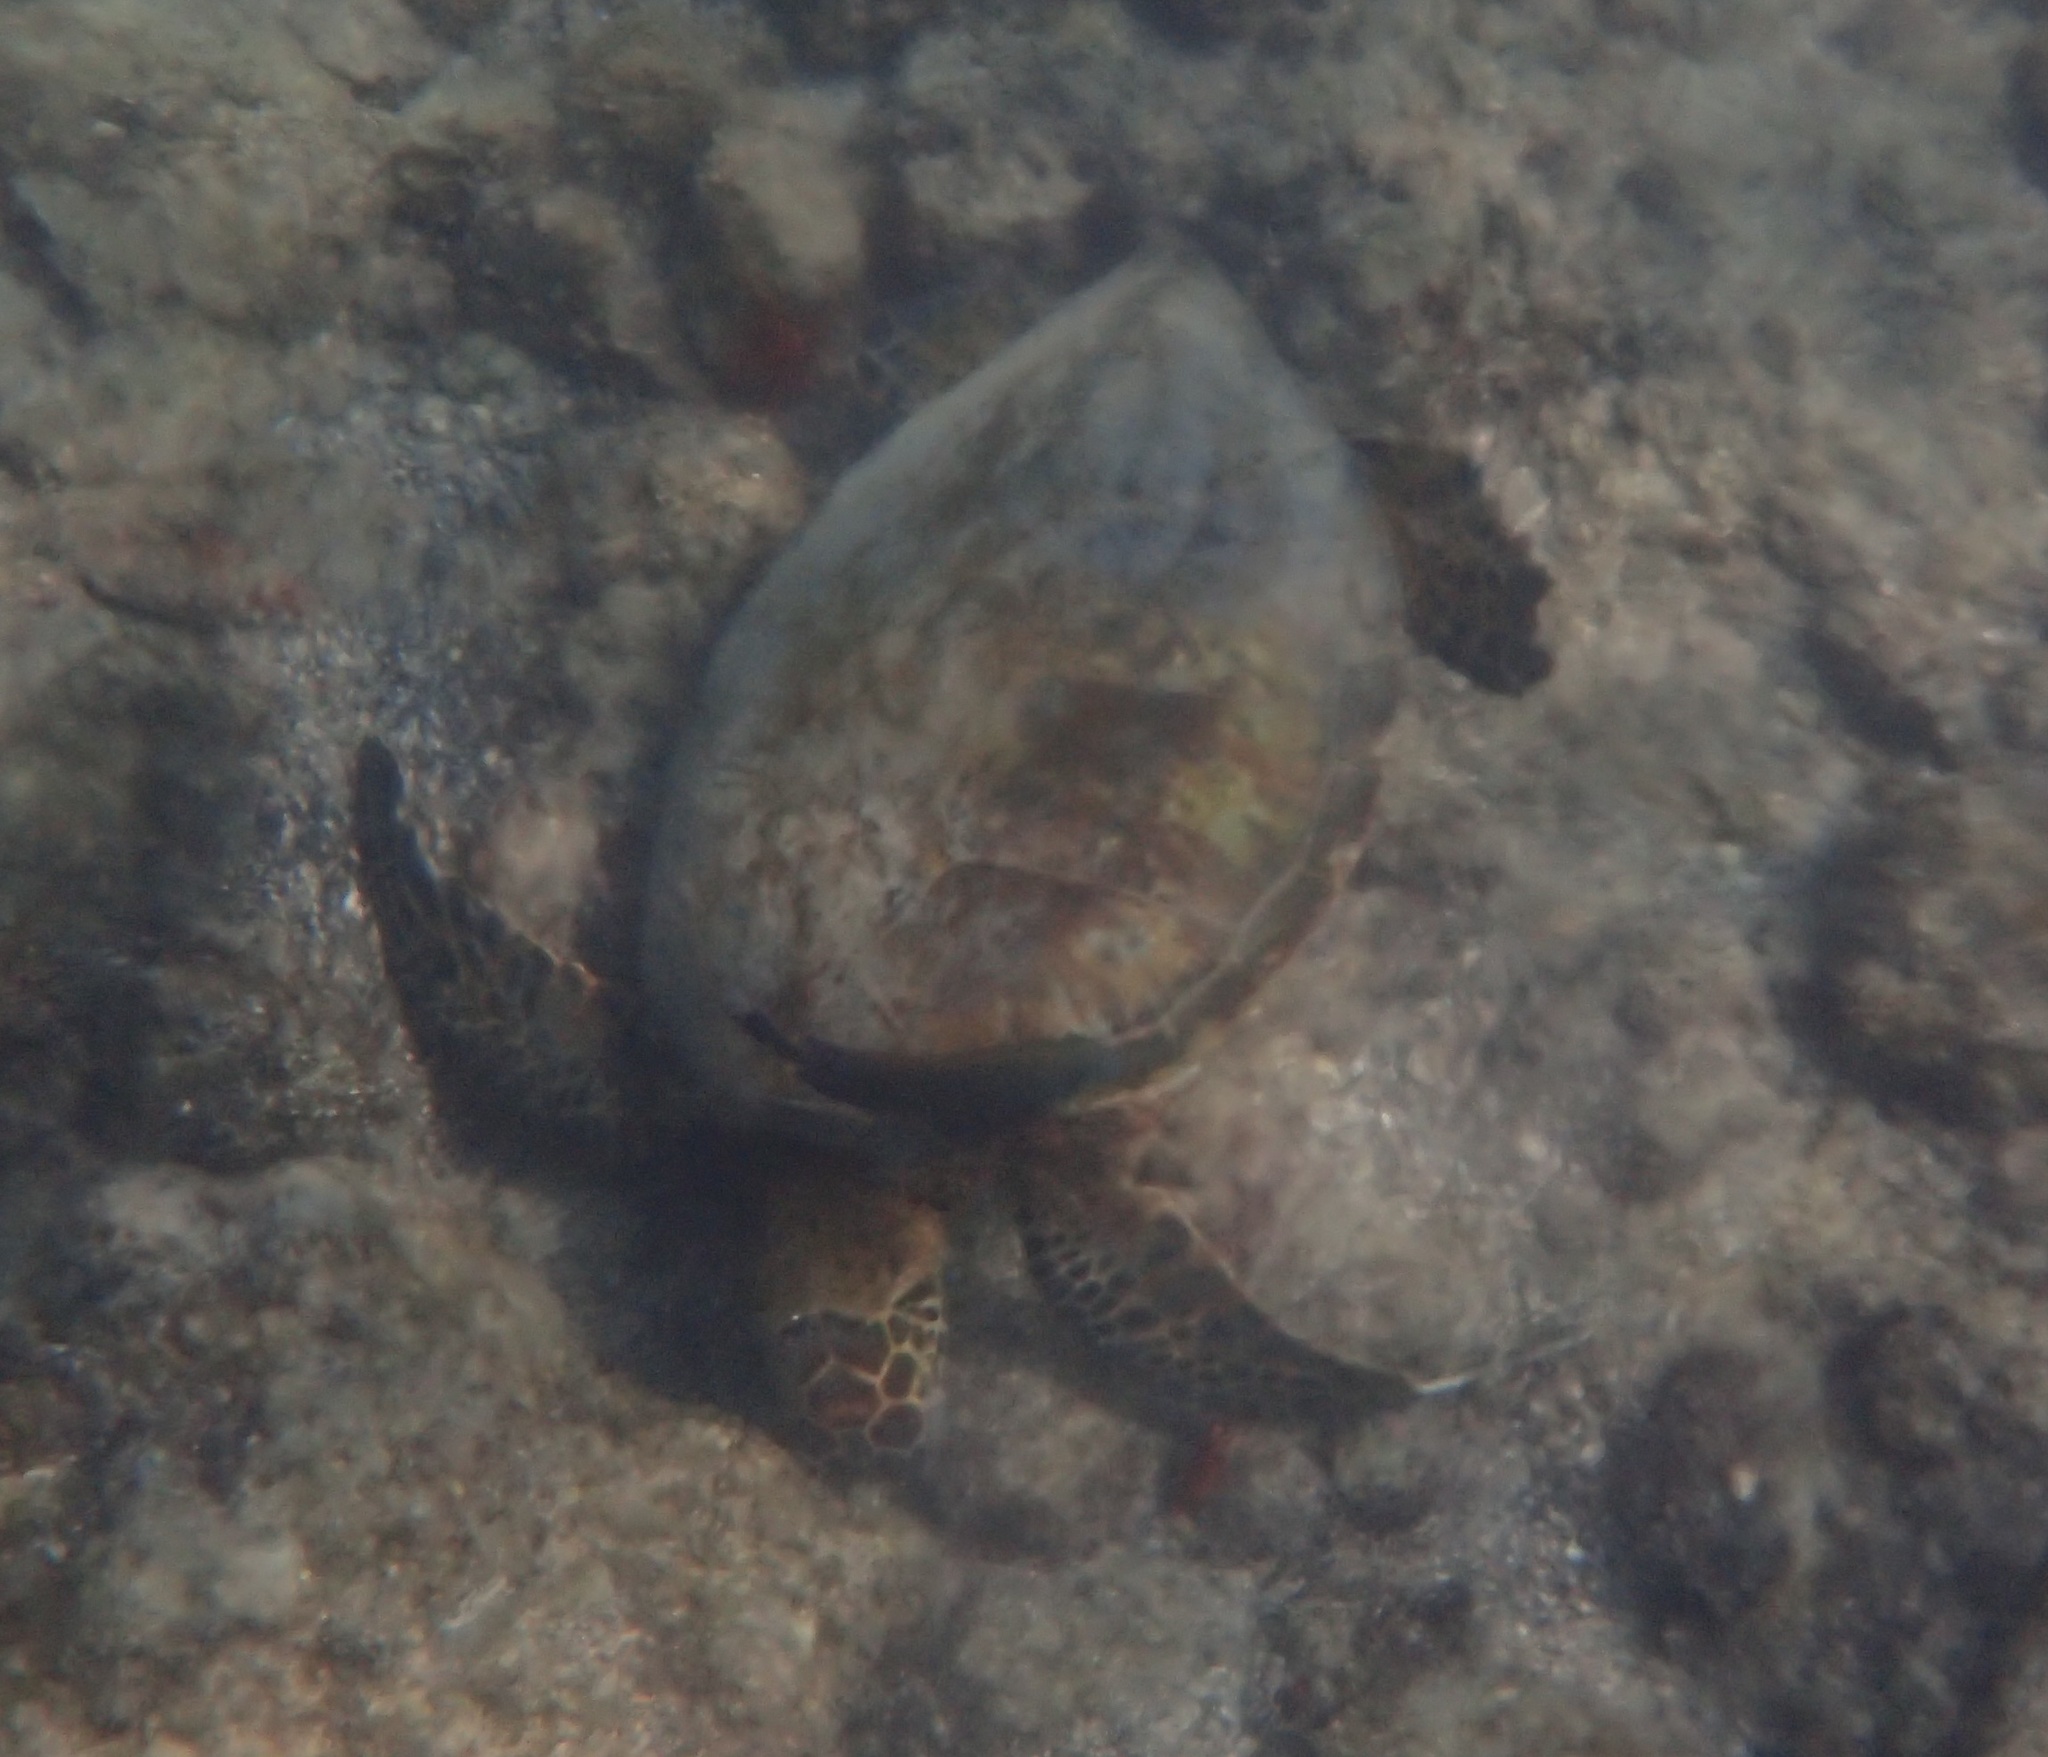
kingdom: Animalia
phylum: Chordata
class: Testudines
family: Cheloniidae
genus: Chelonia
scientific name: Chelonia mydas
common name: Green turtle
